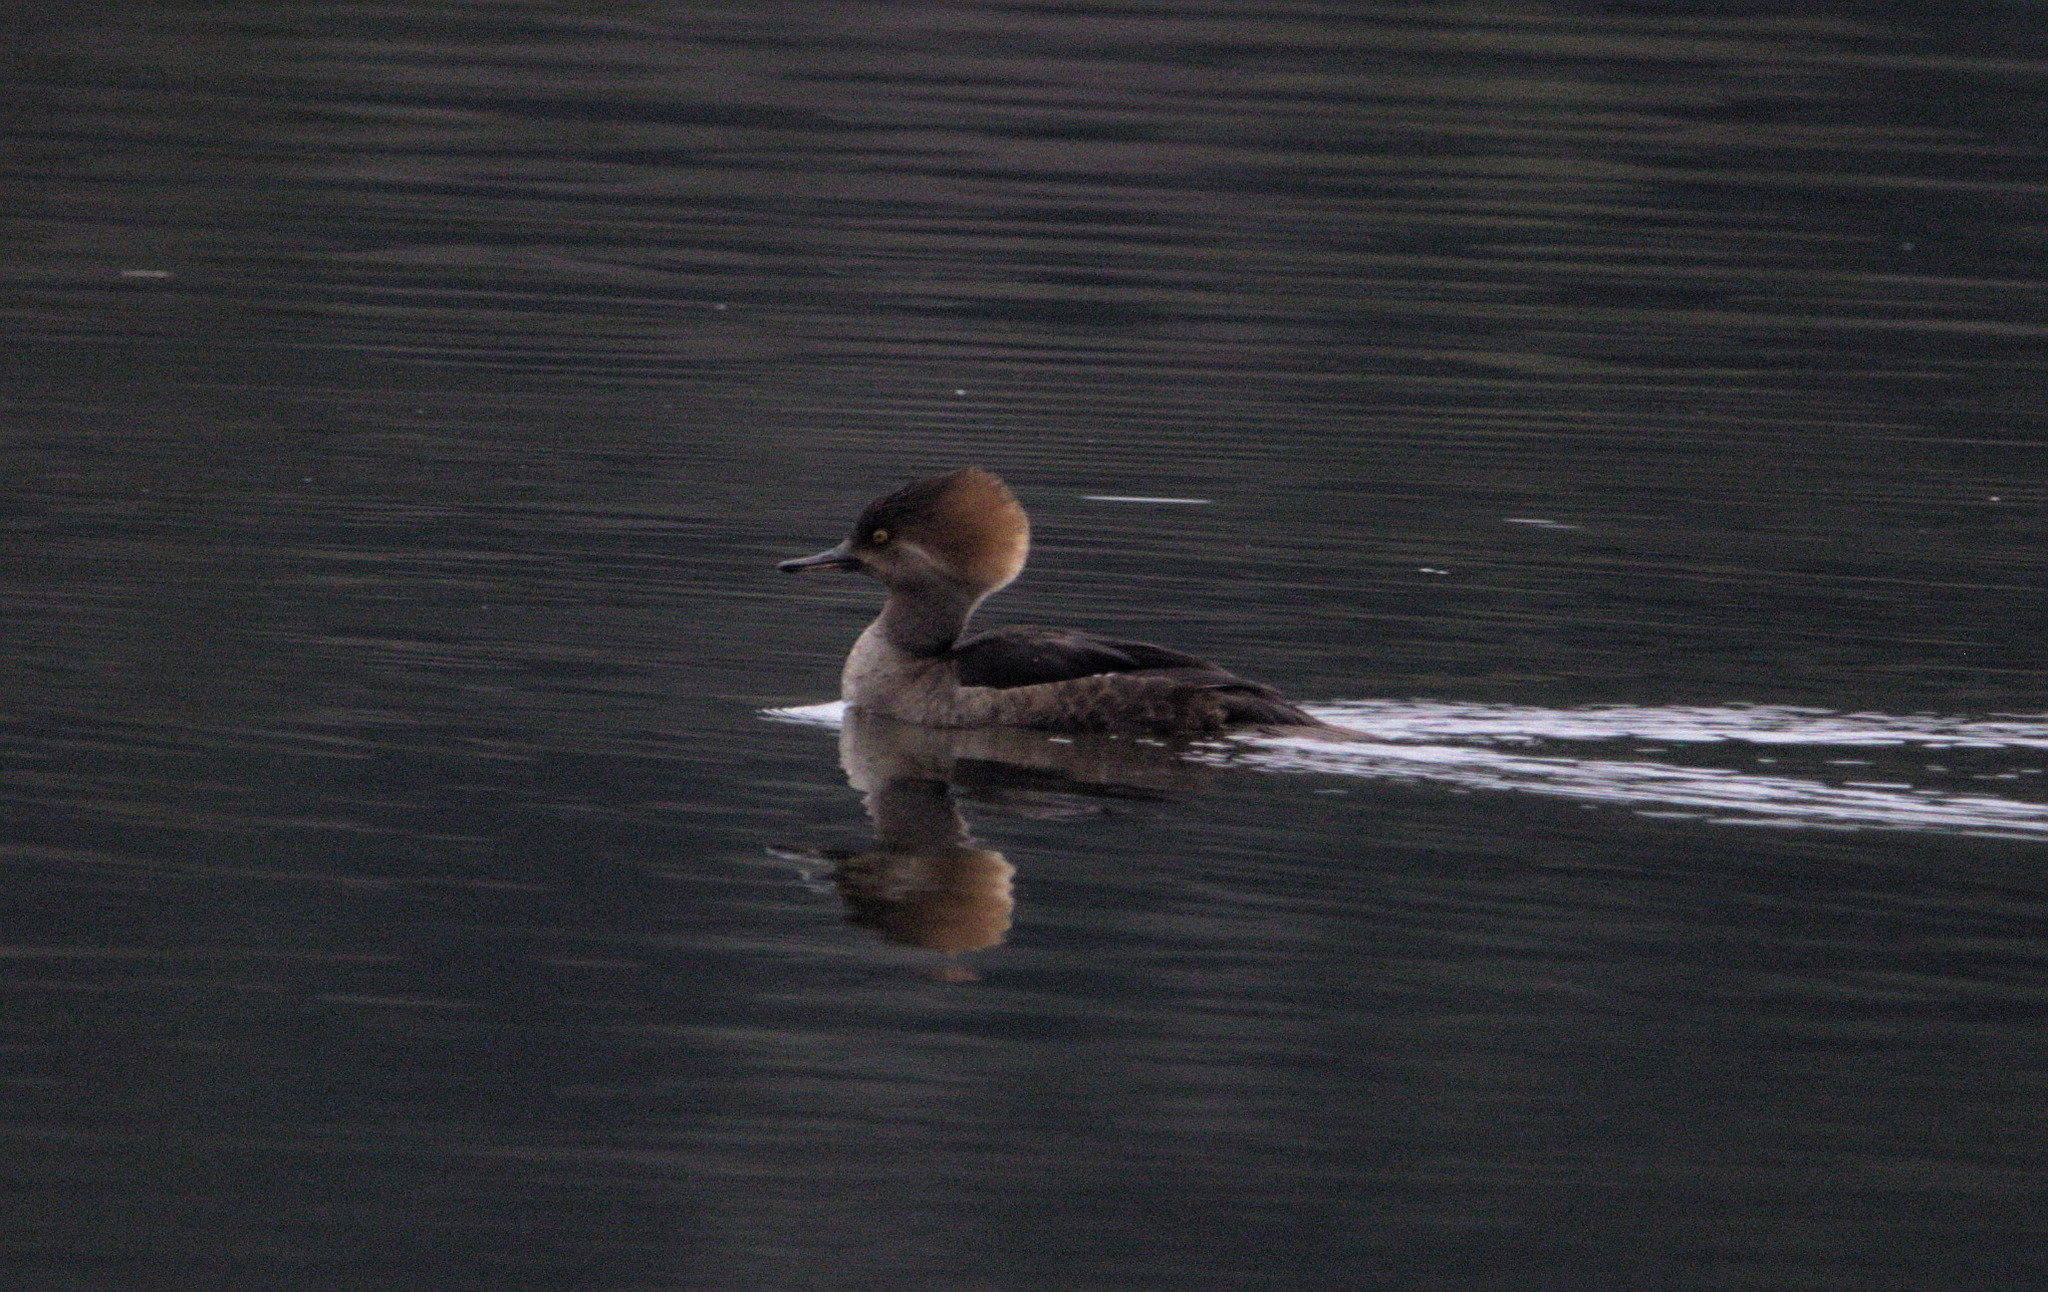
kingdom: Animalia
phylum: Chordata
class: Aves
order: Anseriformes
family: Anatidae
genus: Lophodytes
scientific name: Lophodytes cucullatus
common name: Hooded merganser
